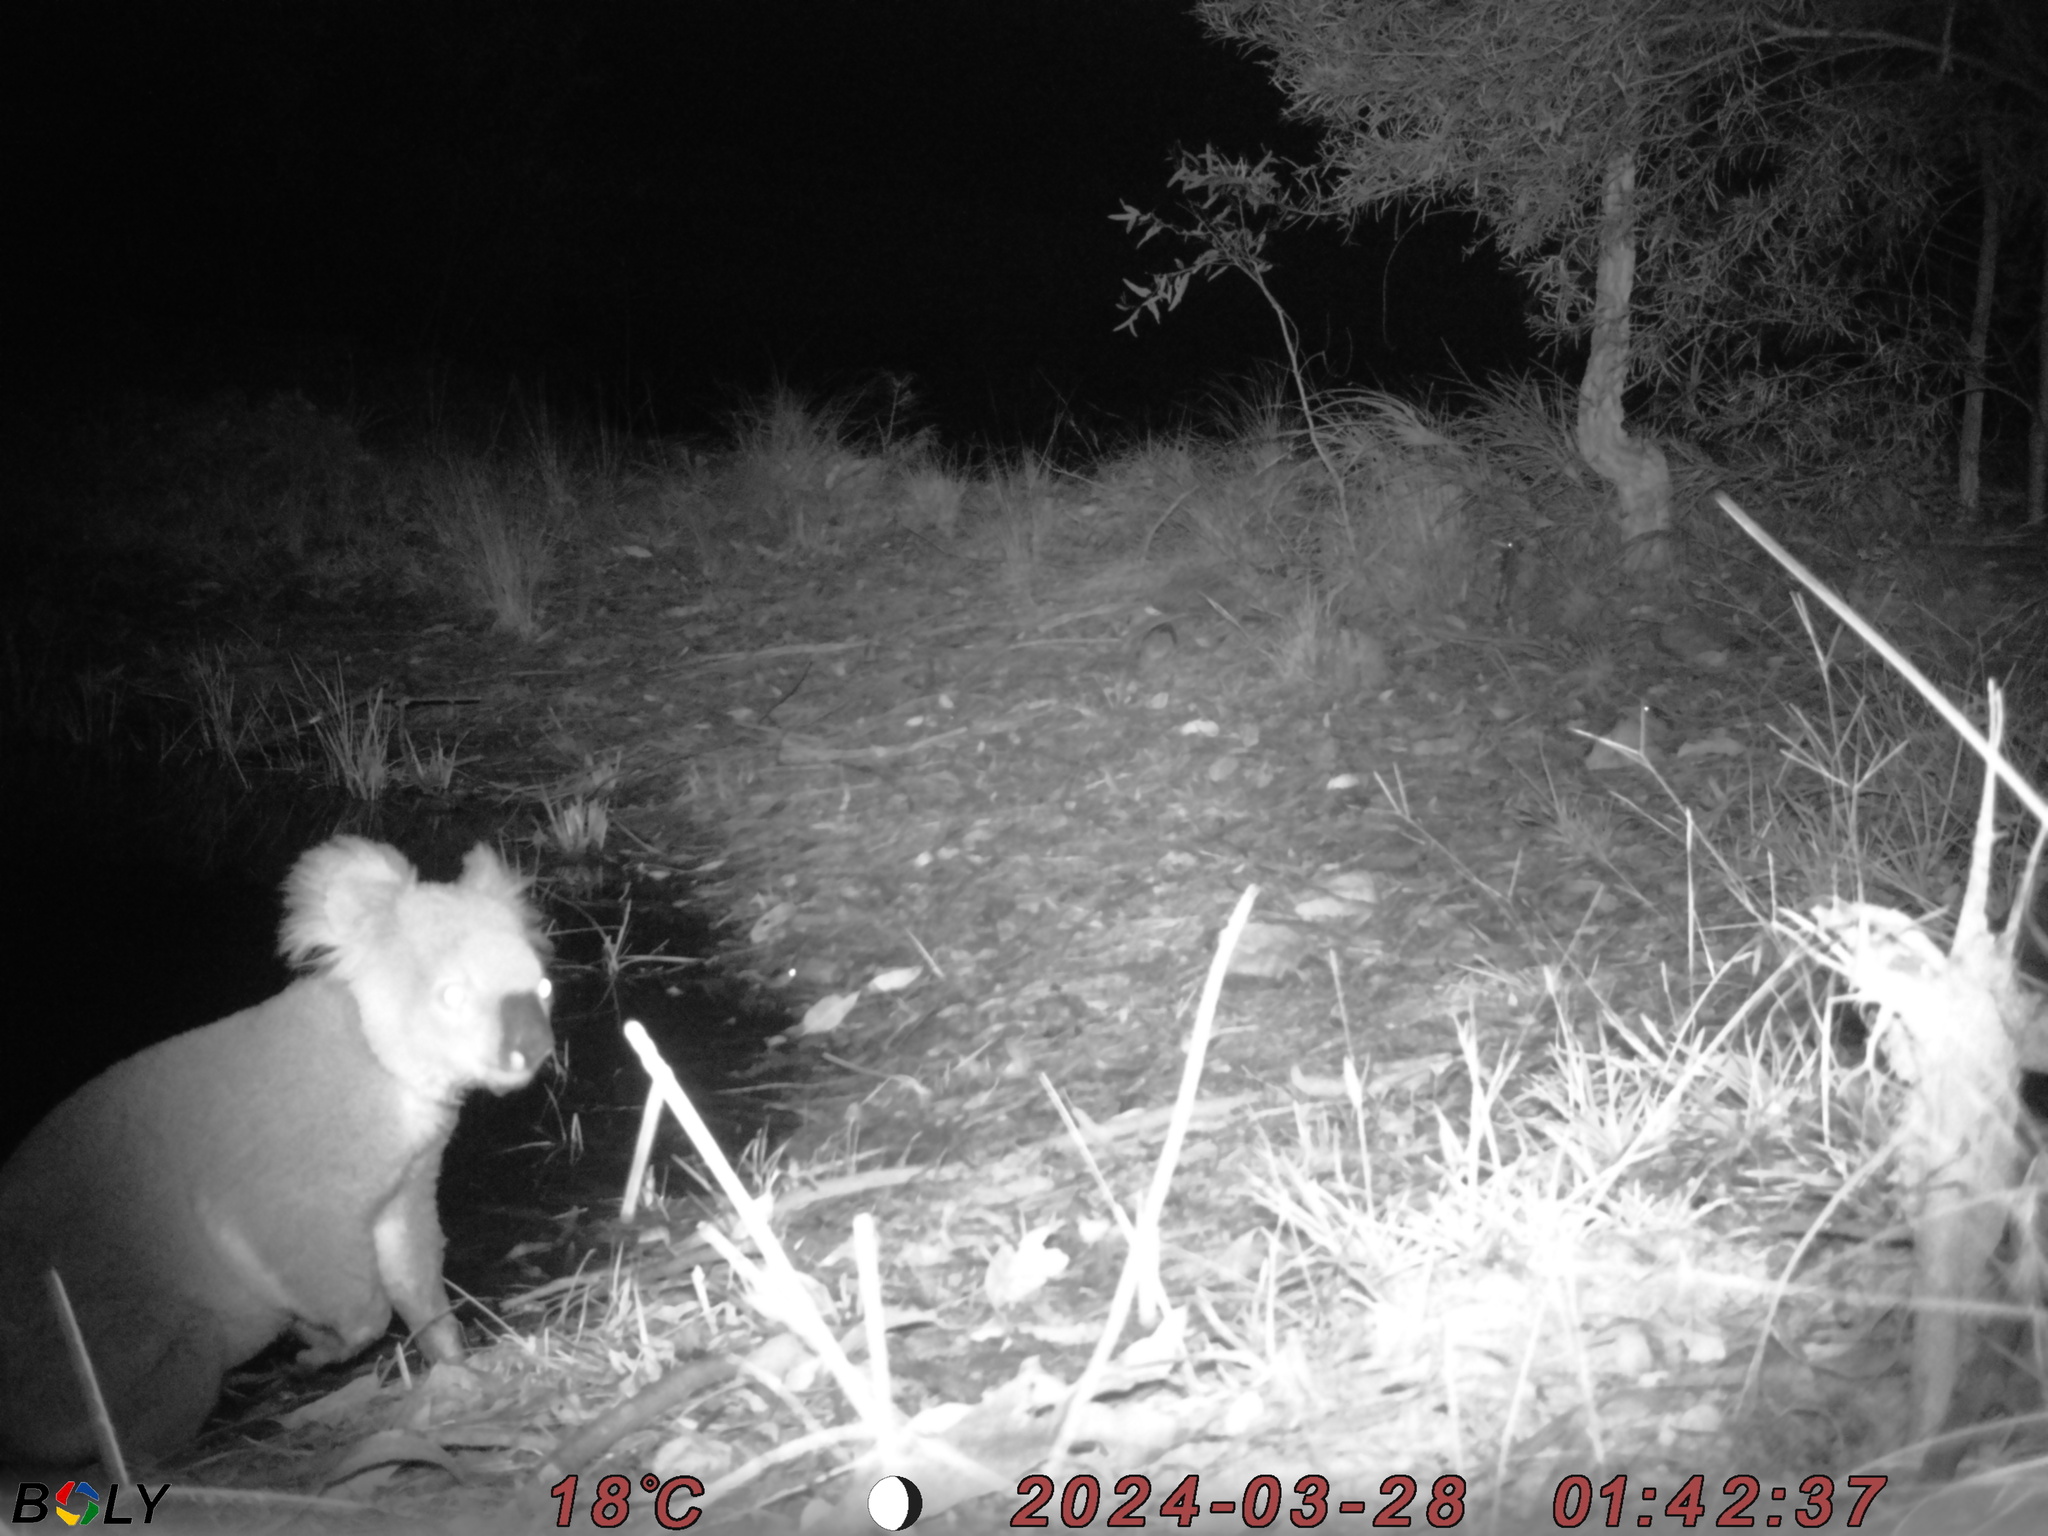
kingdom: Animalia
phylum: Chordata
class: Mammalia
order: Diprotodontia
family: Phascolarctidae
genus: Phascolarctos
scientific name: Phascolarctos cinereus
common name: Koala
